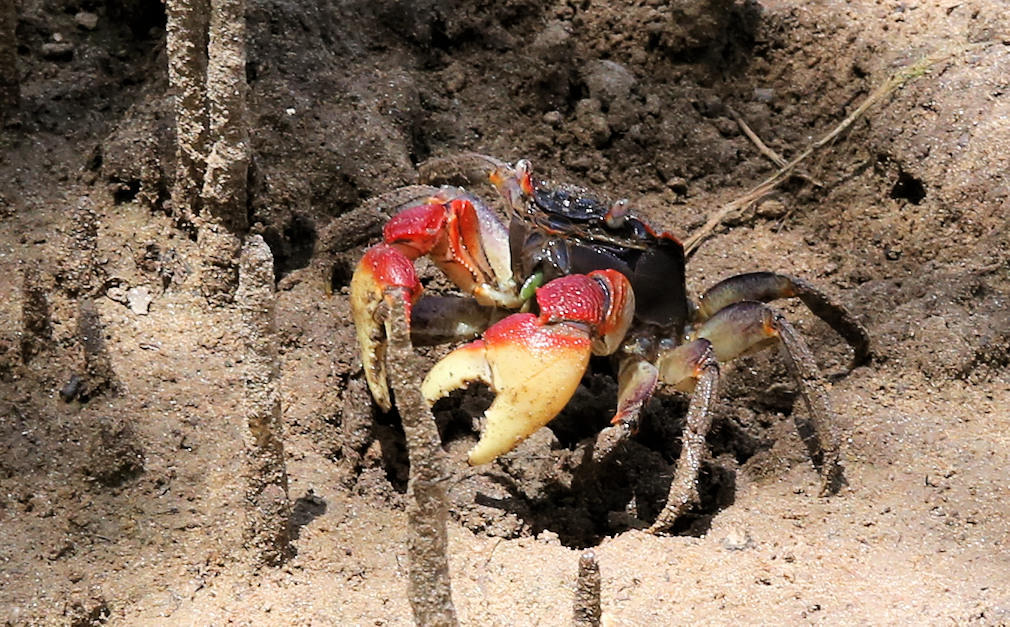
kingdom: Animalia
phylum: Arthropoda
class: Malacostraca
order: Decapoda
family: Sesarmidae
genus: Neosarmatium
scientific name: Neosarmatium africanum
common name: East african red mangrove crab
